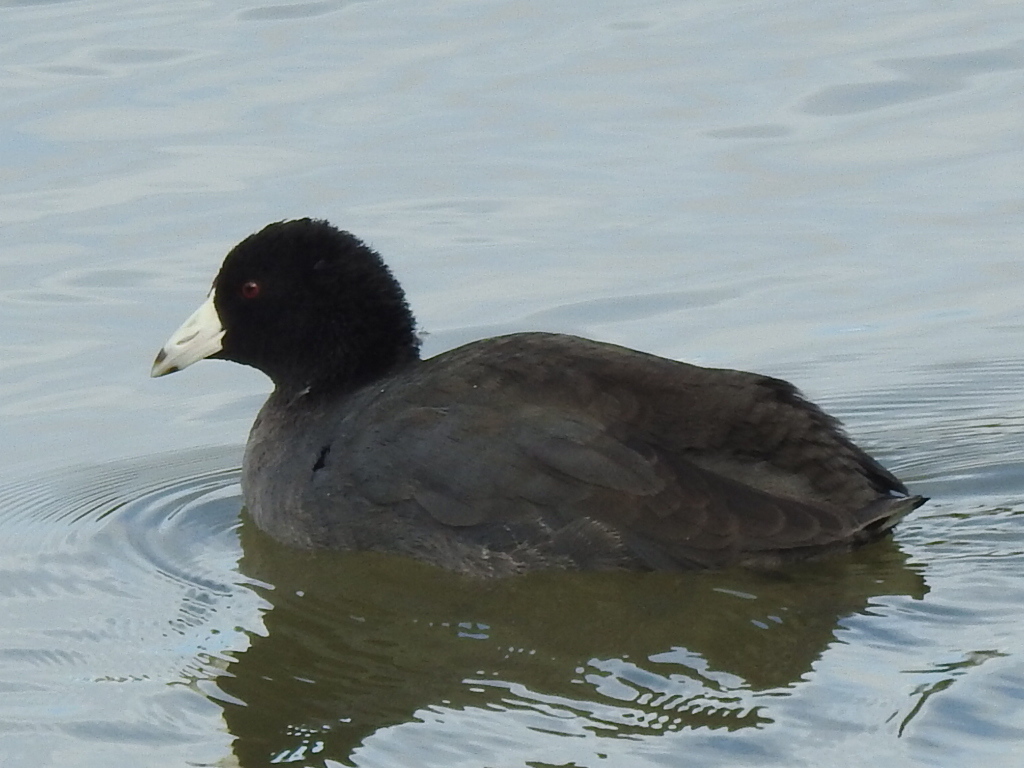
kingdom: Animalia
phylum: Chordata
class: Aves
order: Gruiformes
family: Rallidae
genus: Fulica
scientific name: Fulica americana
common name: American coot
